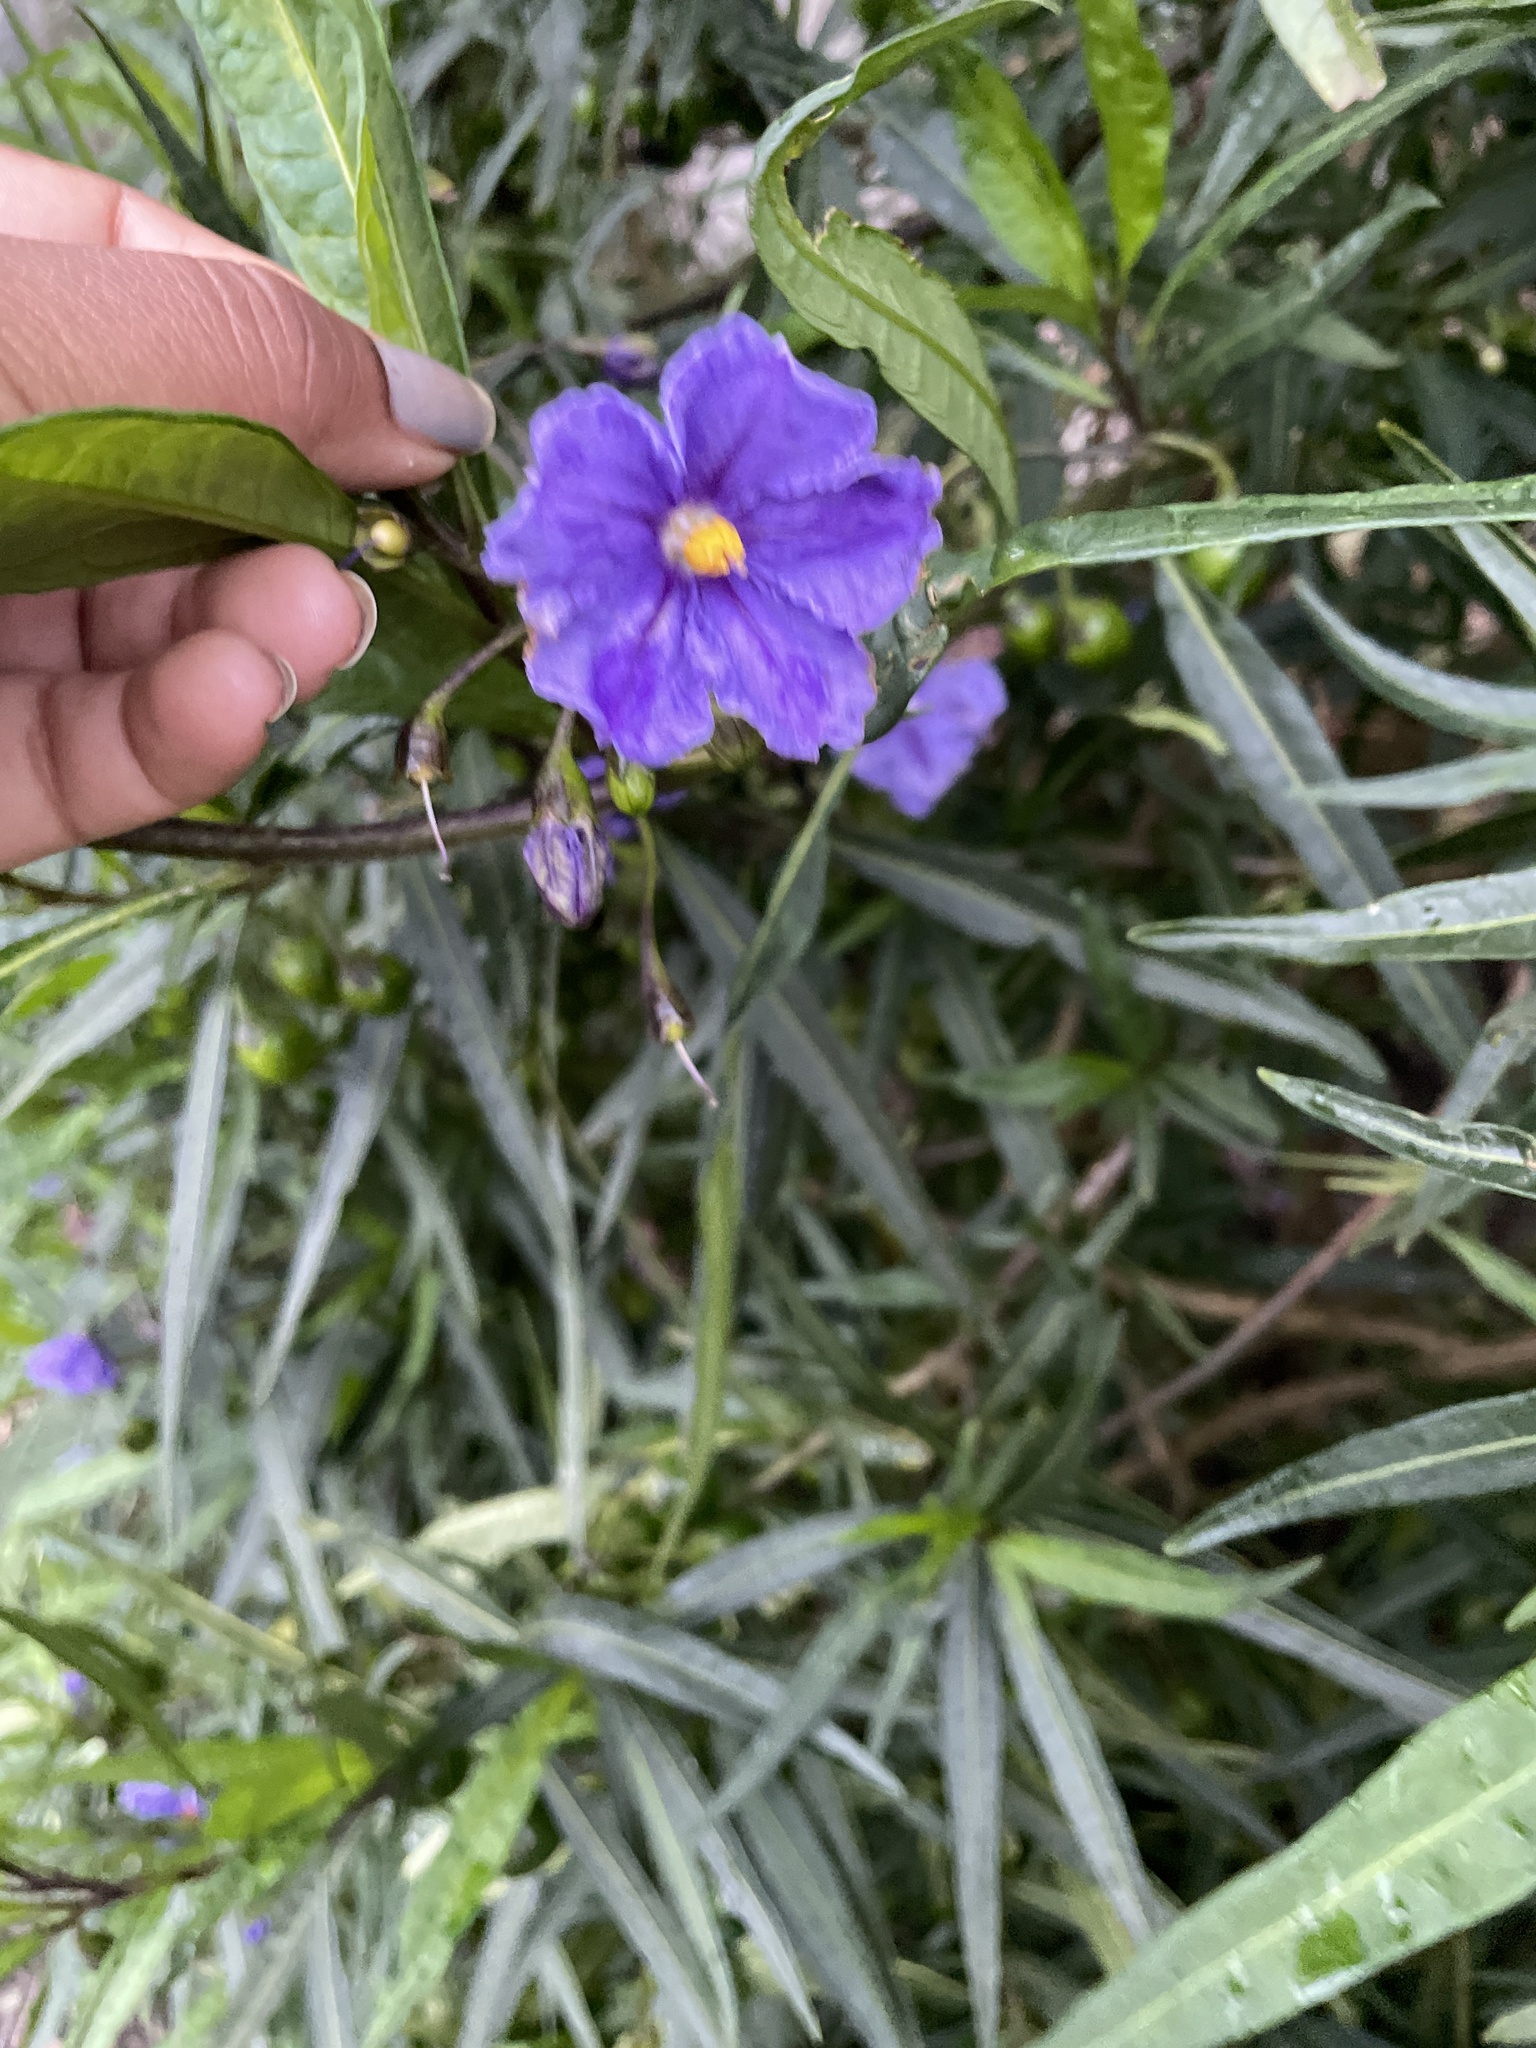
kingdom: Plantae
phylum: Tracheophyta
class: Magnoliopsida
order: Solanales
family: Solanaceae
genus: Solanum
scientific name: Solanum laciniatum
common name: Kangaroo-apple
